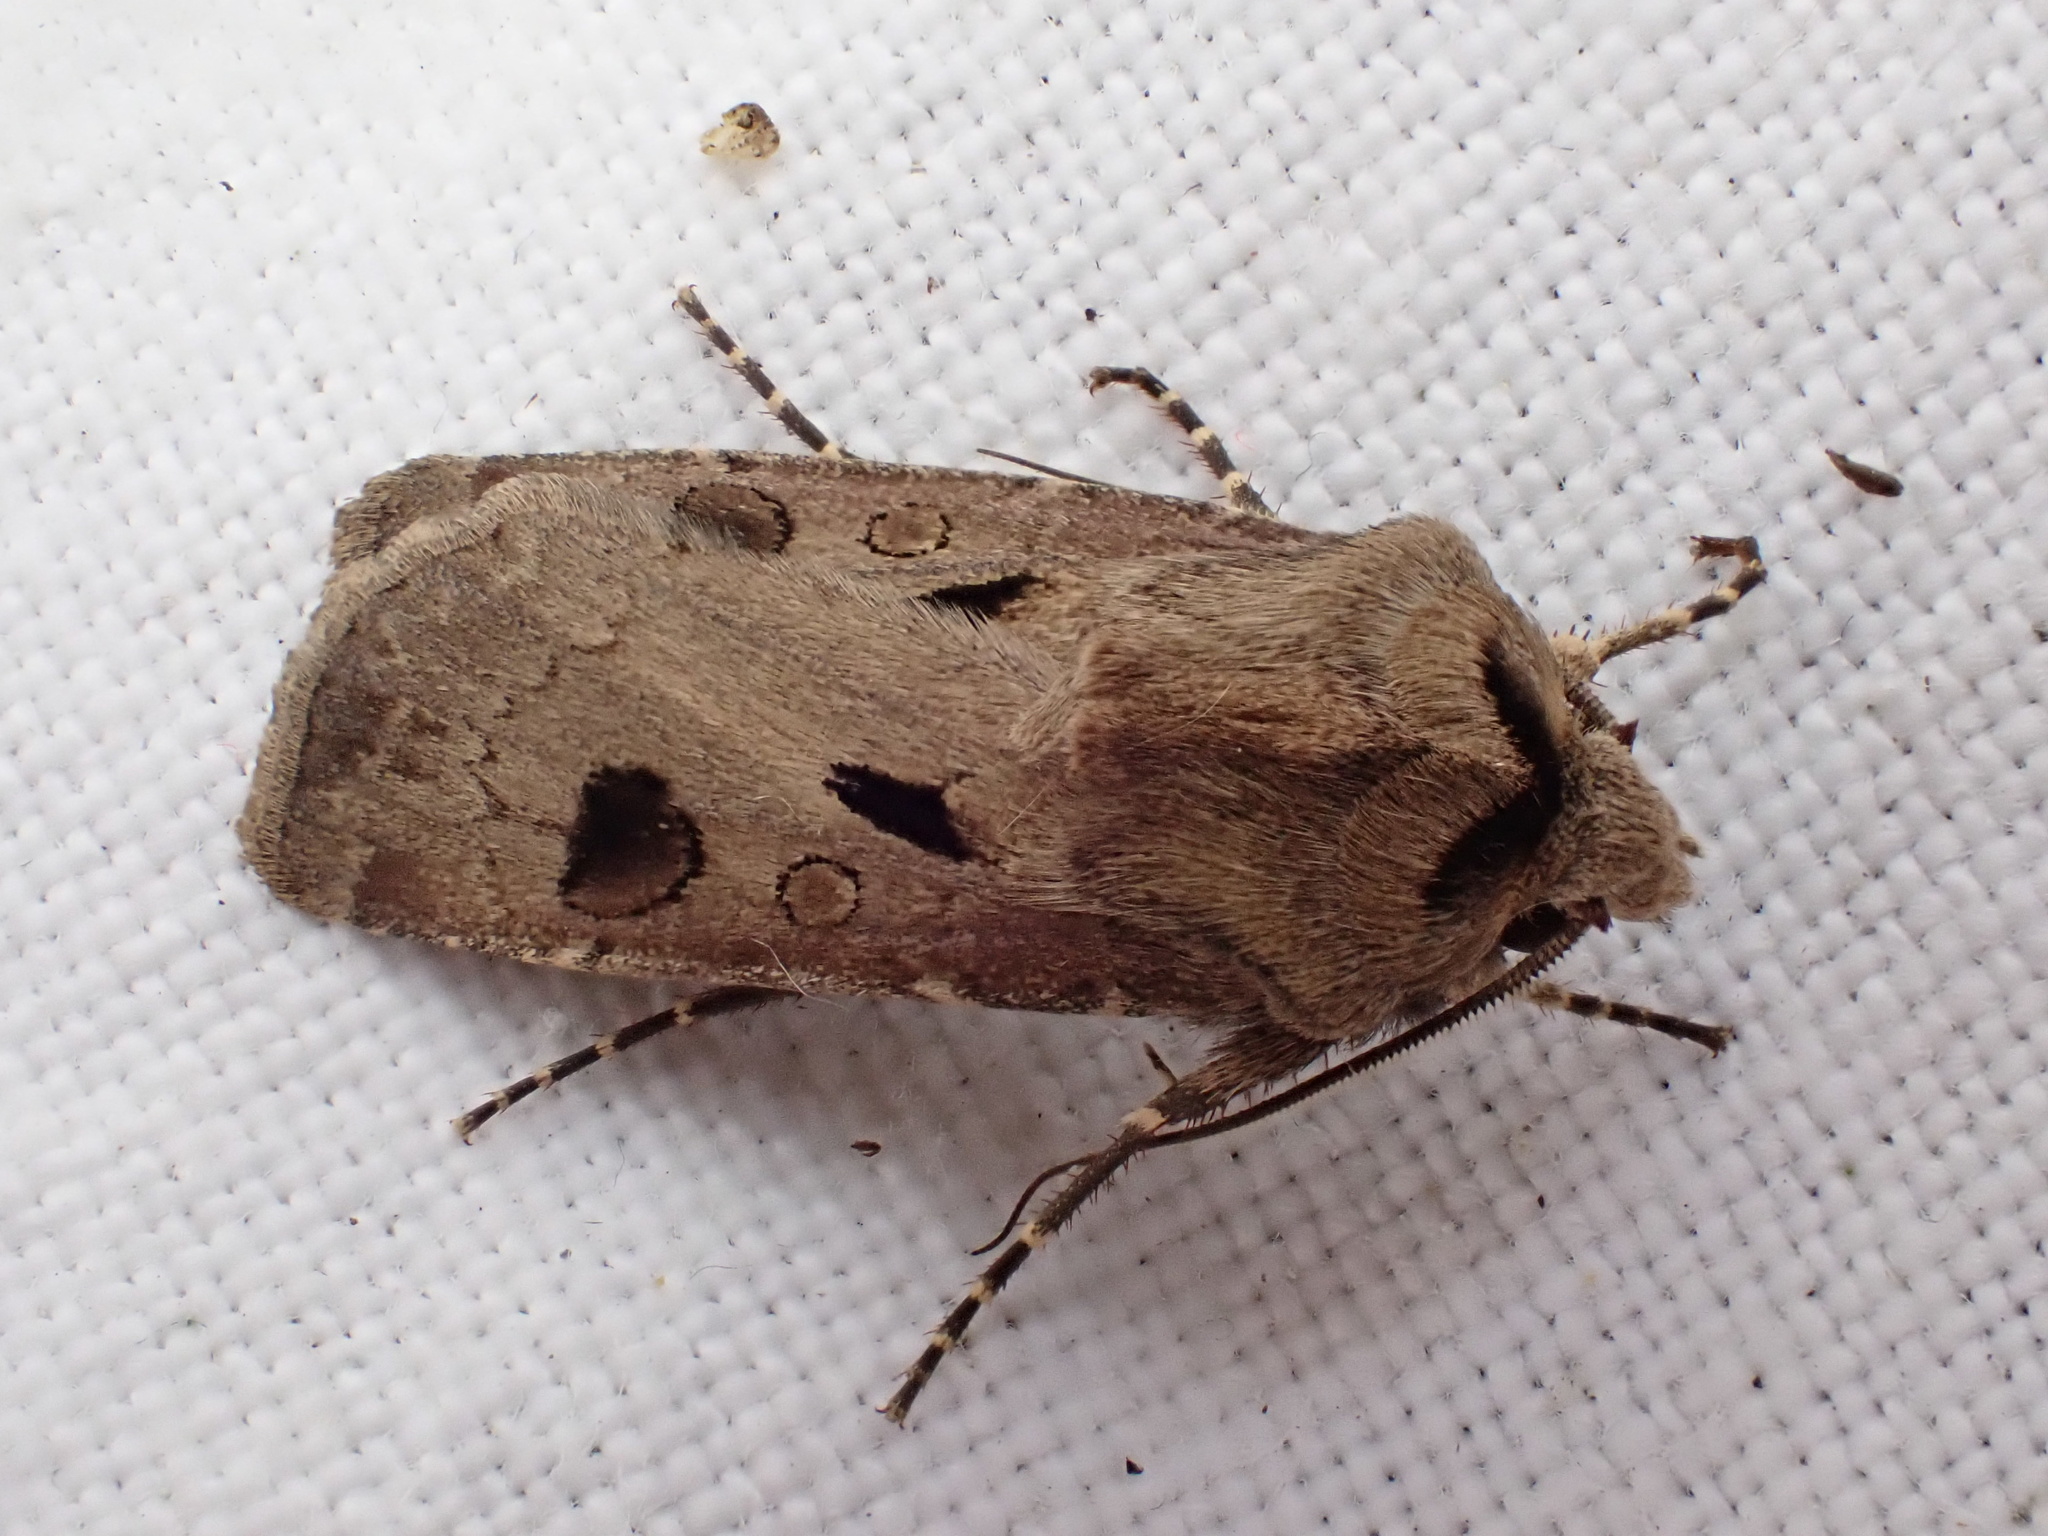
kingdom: Animalia
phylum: Arthropoda
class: Insecta
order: Lepidoptera
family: Noctuidae
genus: Agrotis
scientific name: Agrotis exclamationis
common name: Heart and dart
